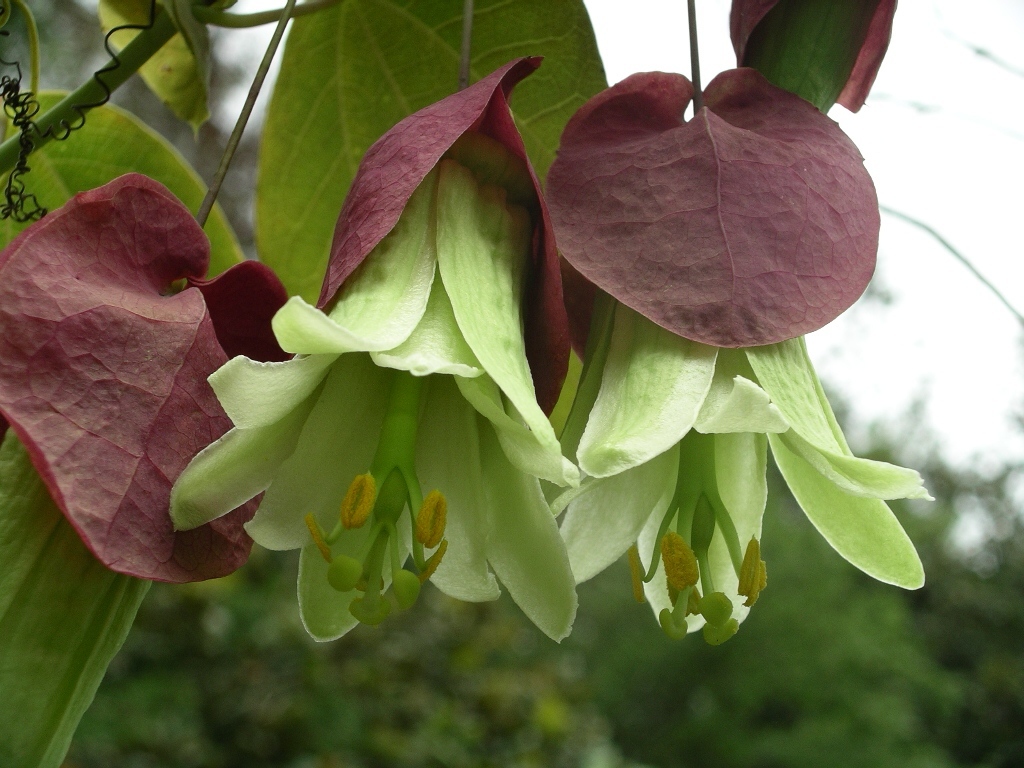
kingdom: Plantae
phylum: Tracheophyta
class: Magnoliopsida
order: Malpighiales
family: Passifloraceae
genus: Passiflora
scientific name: Passiflora membranacea
